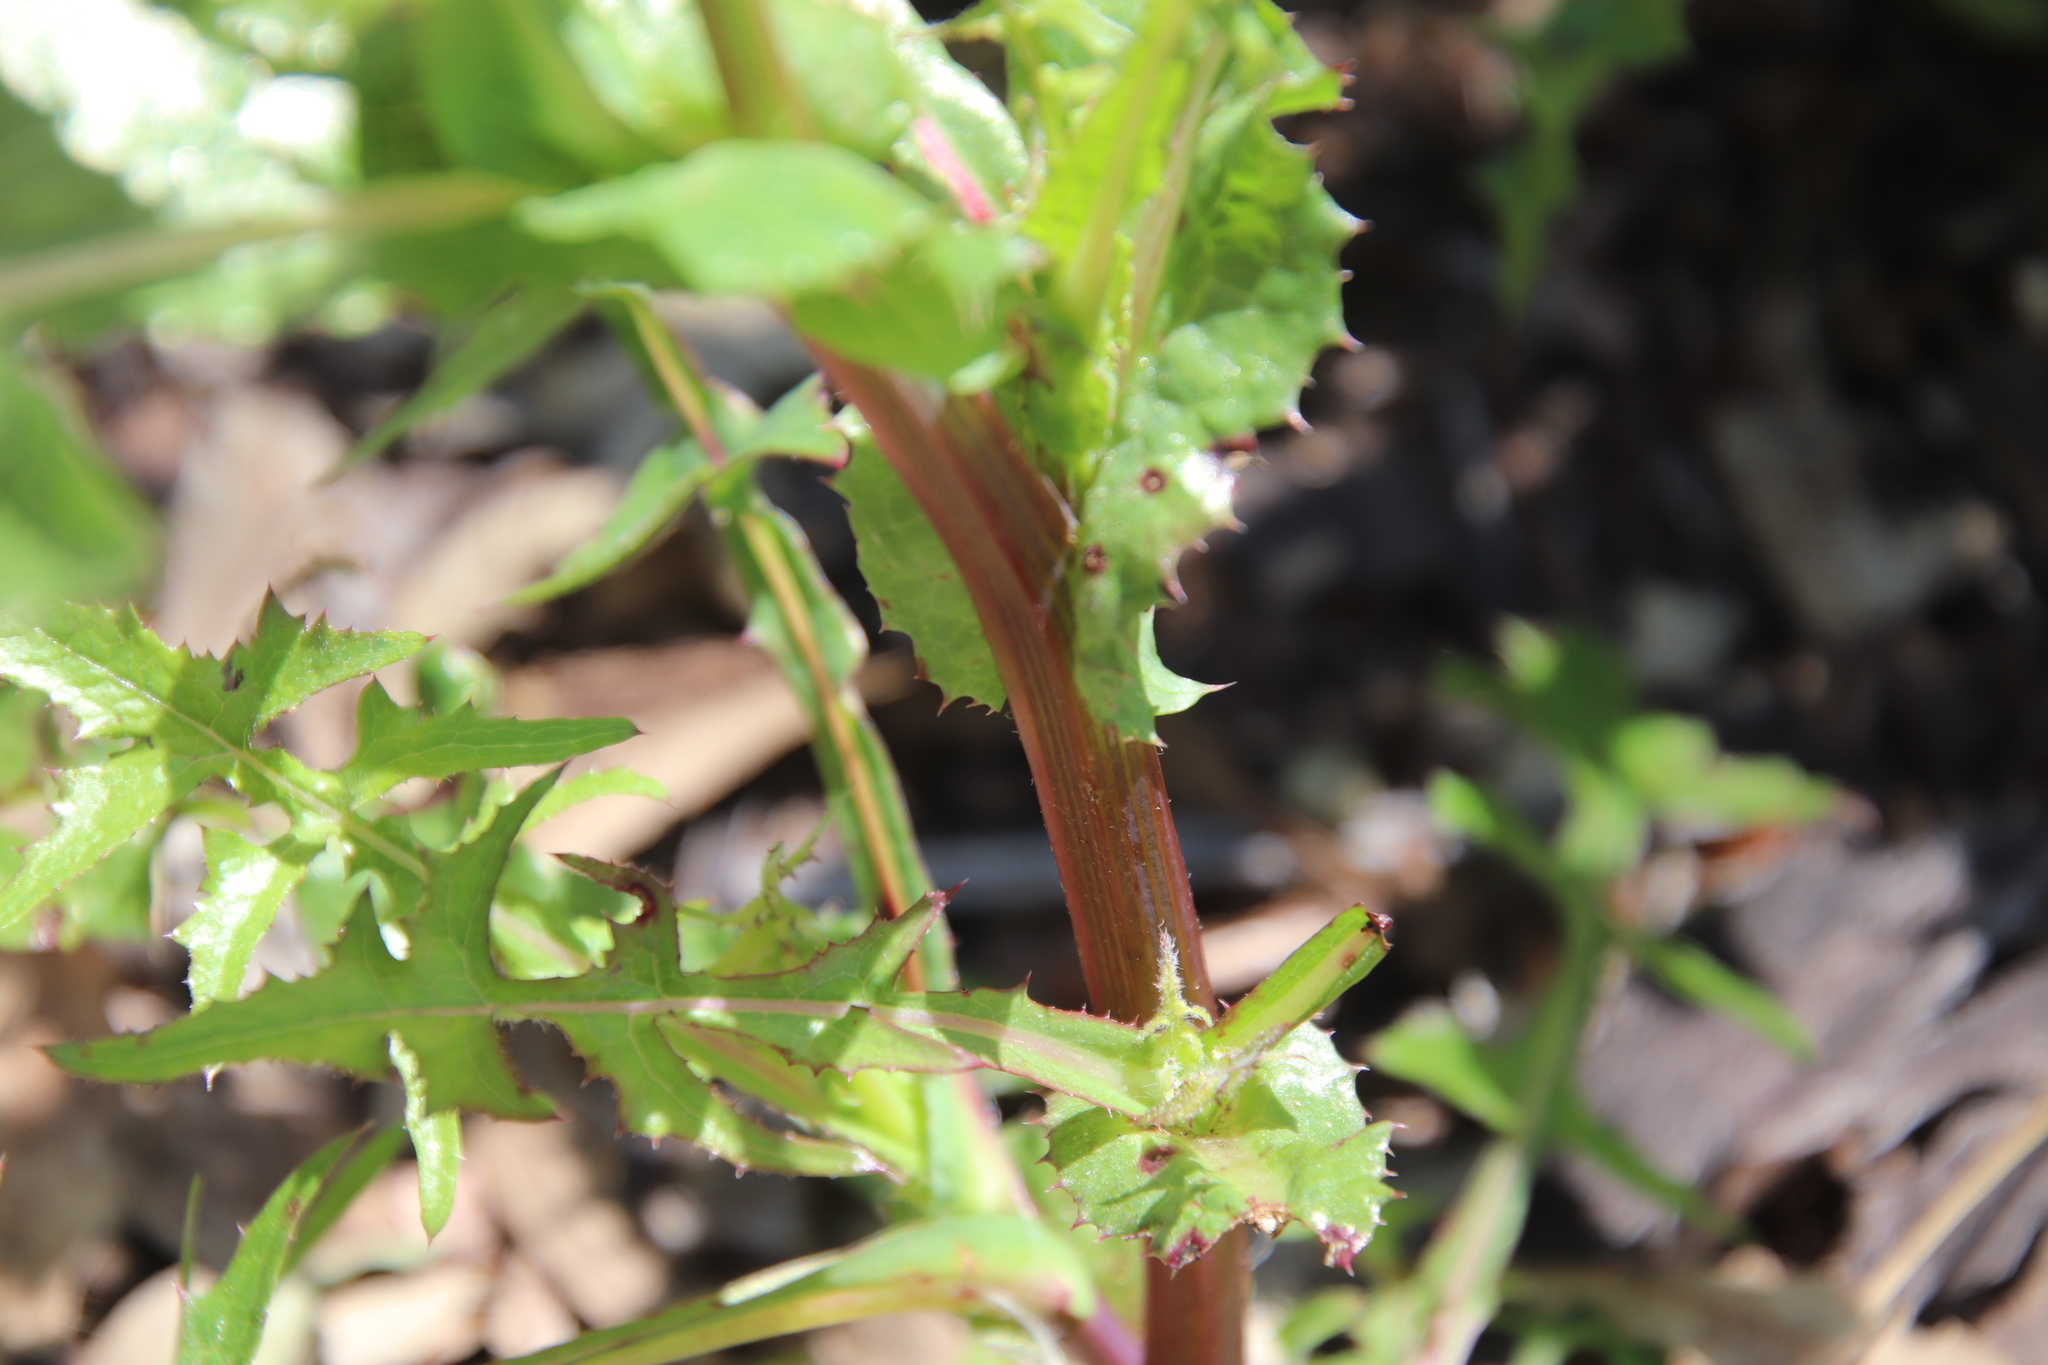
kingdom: Plantae
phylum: Tracheophyta
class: Magnoliopsida
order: Asterales
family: Asteraceae
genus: Sonchus
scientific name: Sonchus asper
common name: Prickly sow-thistle
